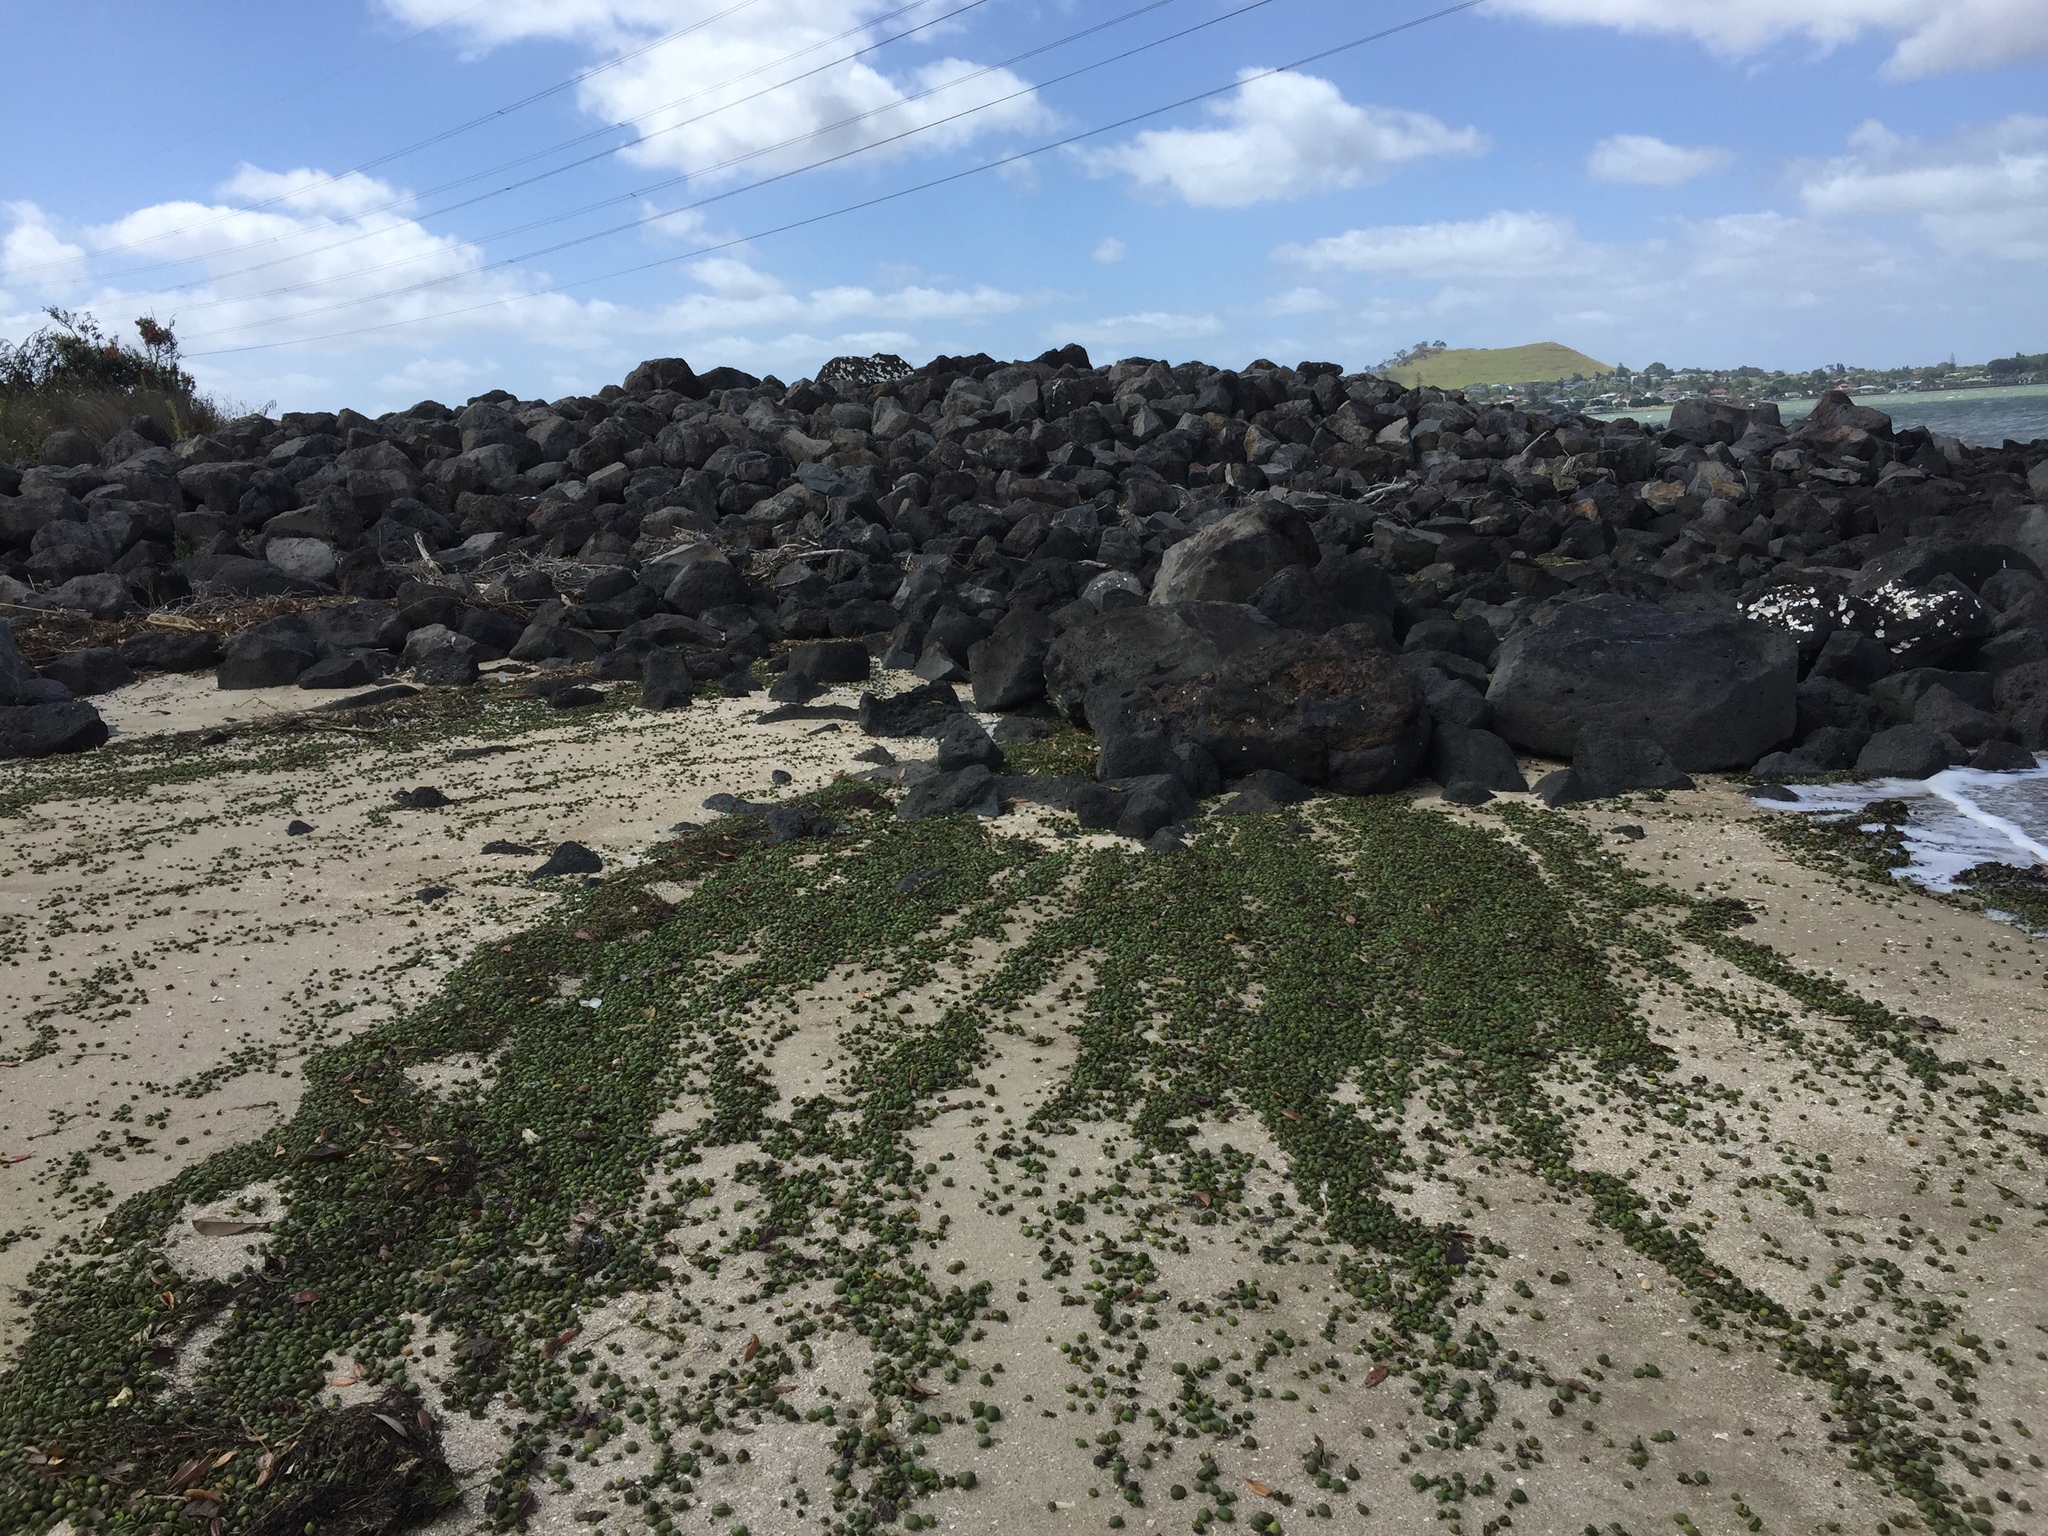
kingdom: Plantae
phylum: Tracheophyta
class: Magnoliopsida
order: Lamiales
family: Acanthaceae
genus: Avicennia
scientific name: Avicennia marina
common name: Gray mangrove
